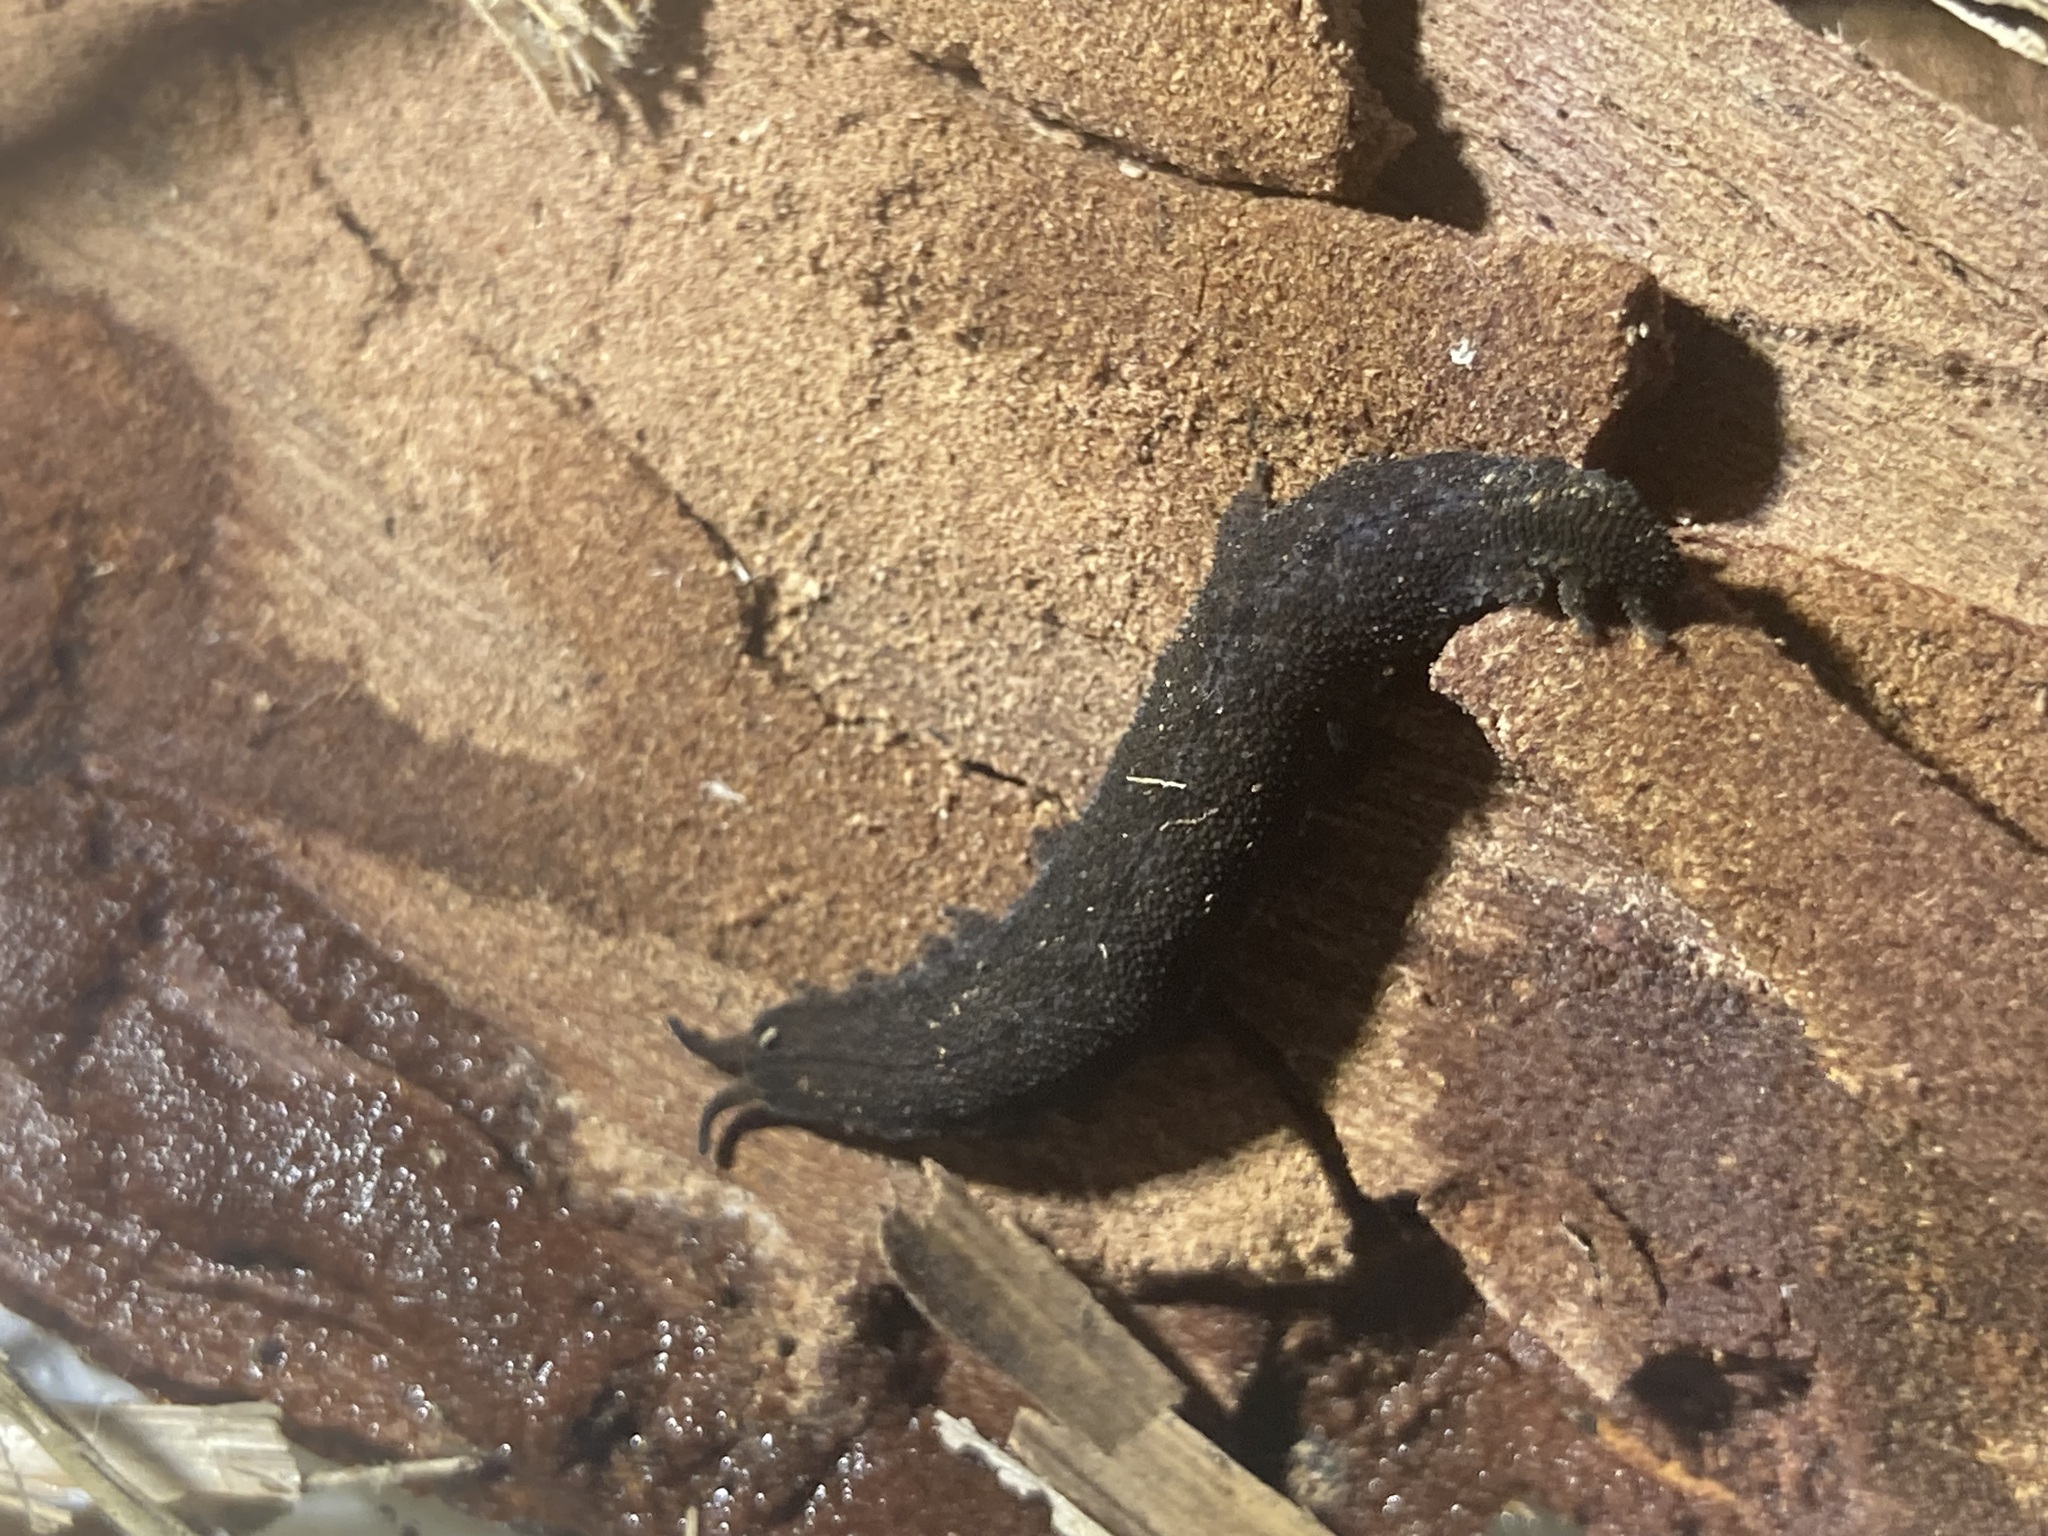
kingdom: Animalia
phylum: Onychophora
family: Peripatopsidae
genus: Anoplokaros
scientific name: Anoplokaros keerensis
